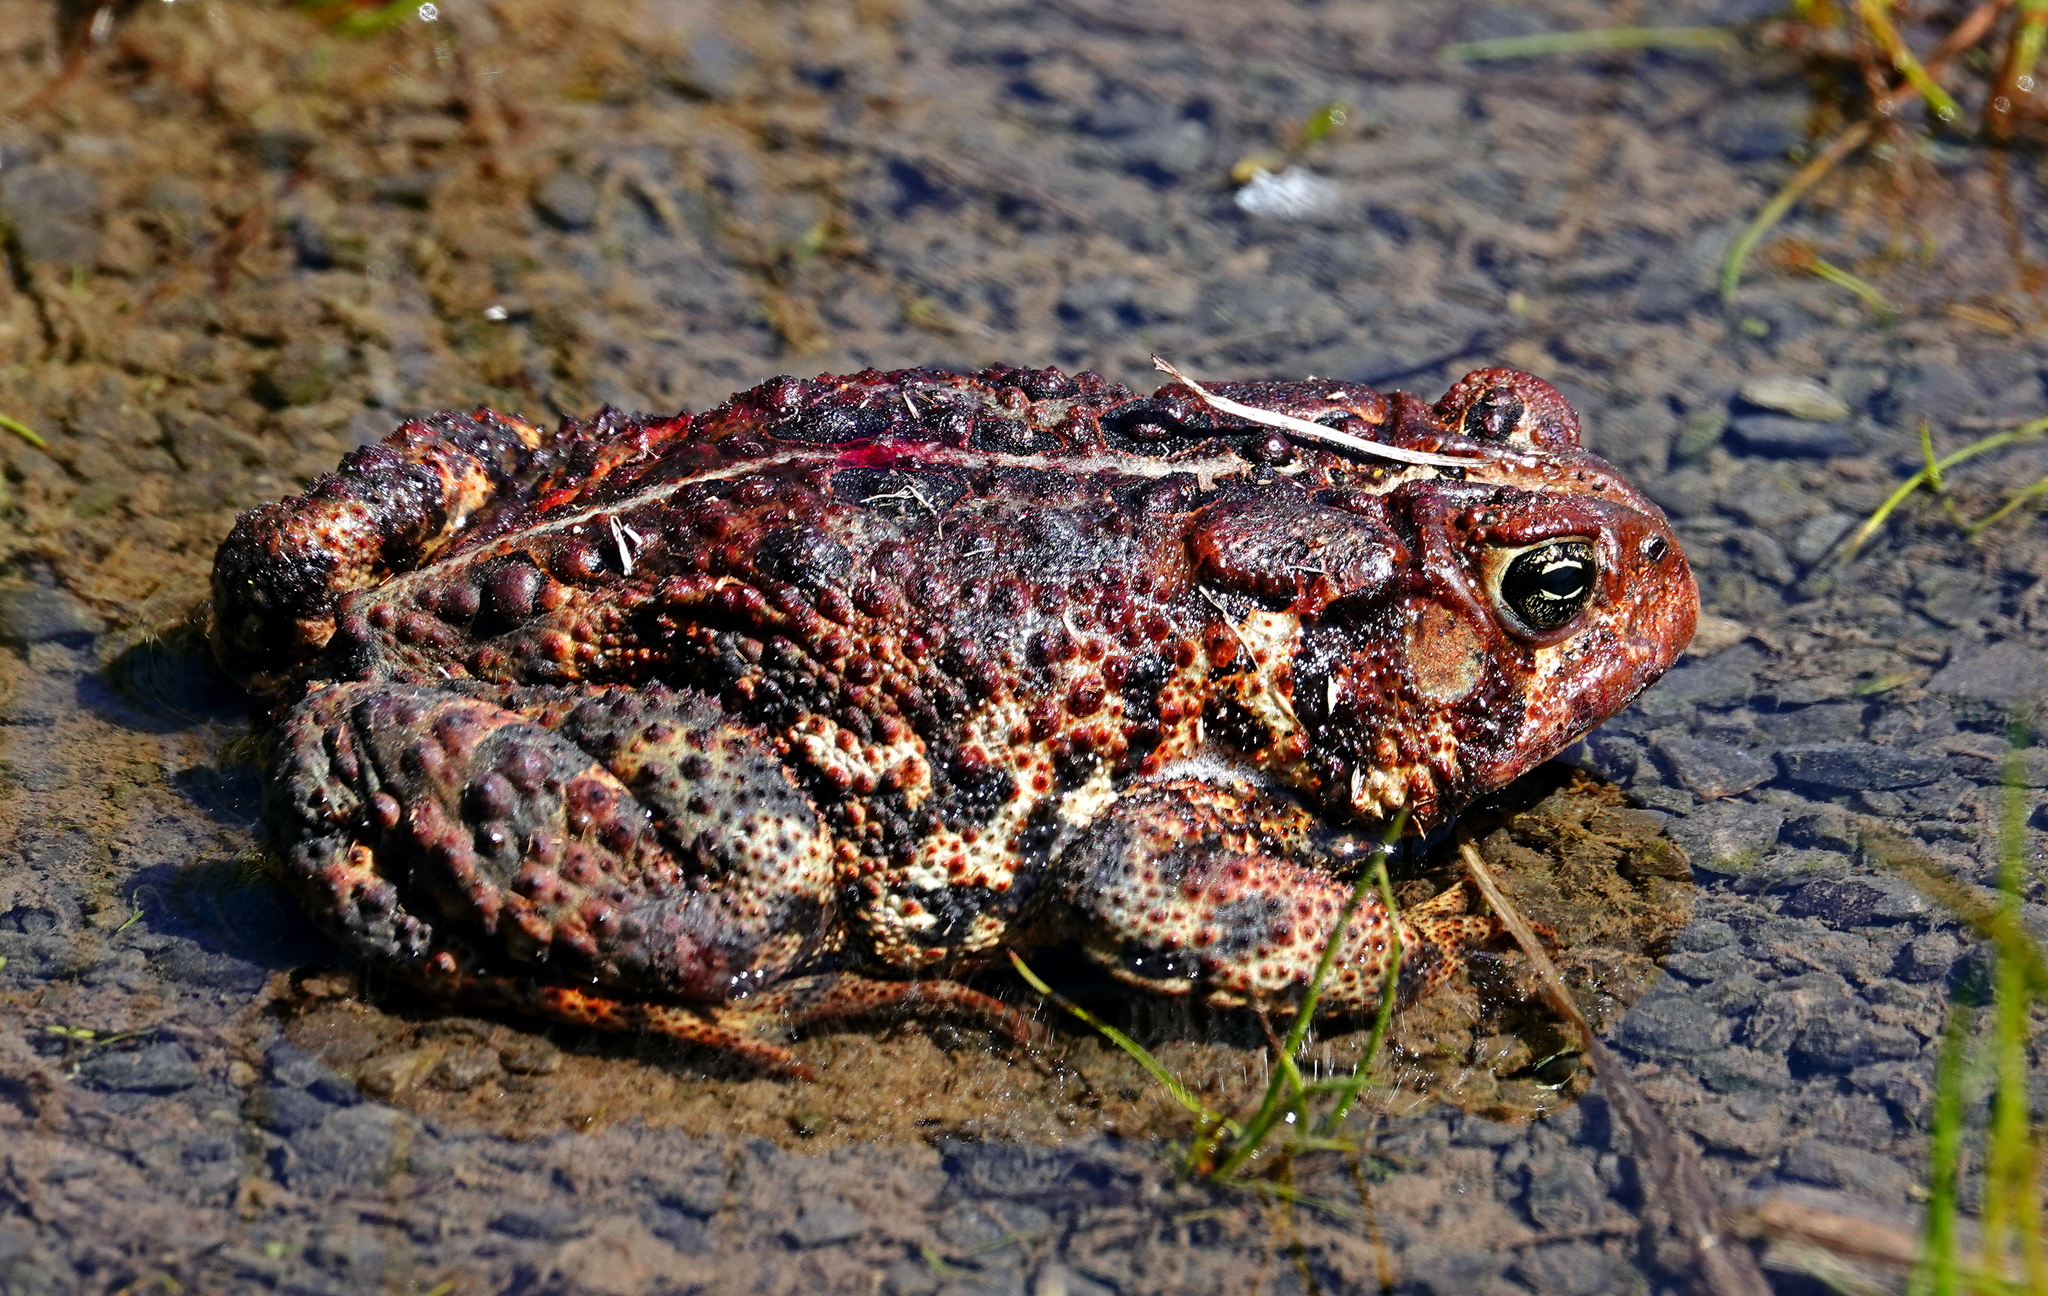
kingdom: Animalia
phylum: Chordata
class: Amphibia
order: Anura
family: Bufonidae
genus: Anaxyrus
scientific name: Anaxyrus americanus
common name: American toad
